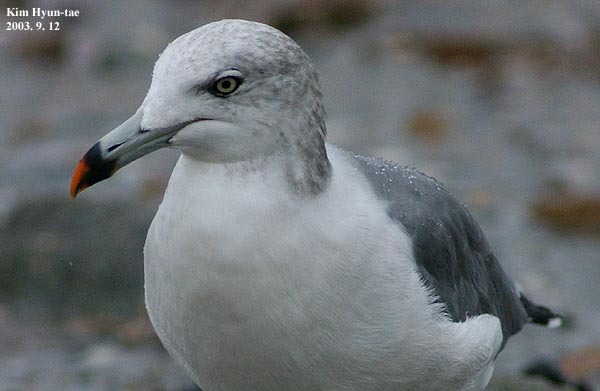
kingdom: Animalia
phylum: Chordata
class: Aves
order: Charadriiformes
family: Laridae
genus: Larus
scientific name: Larus crassirostris
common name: Black-tailed gull
